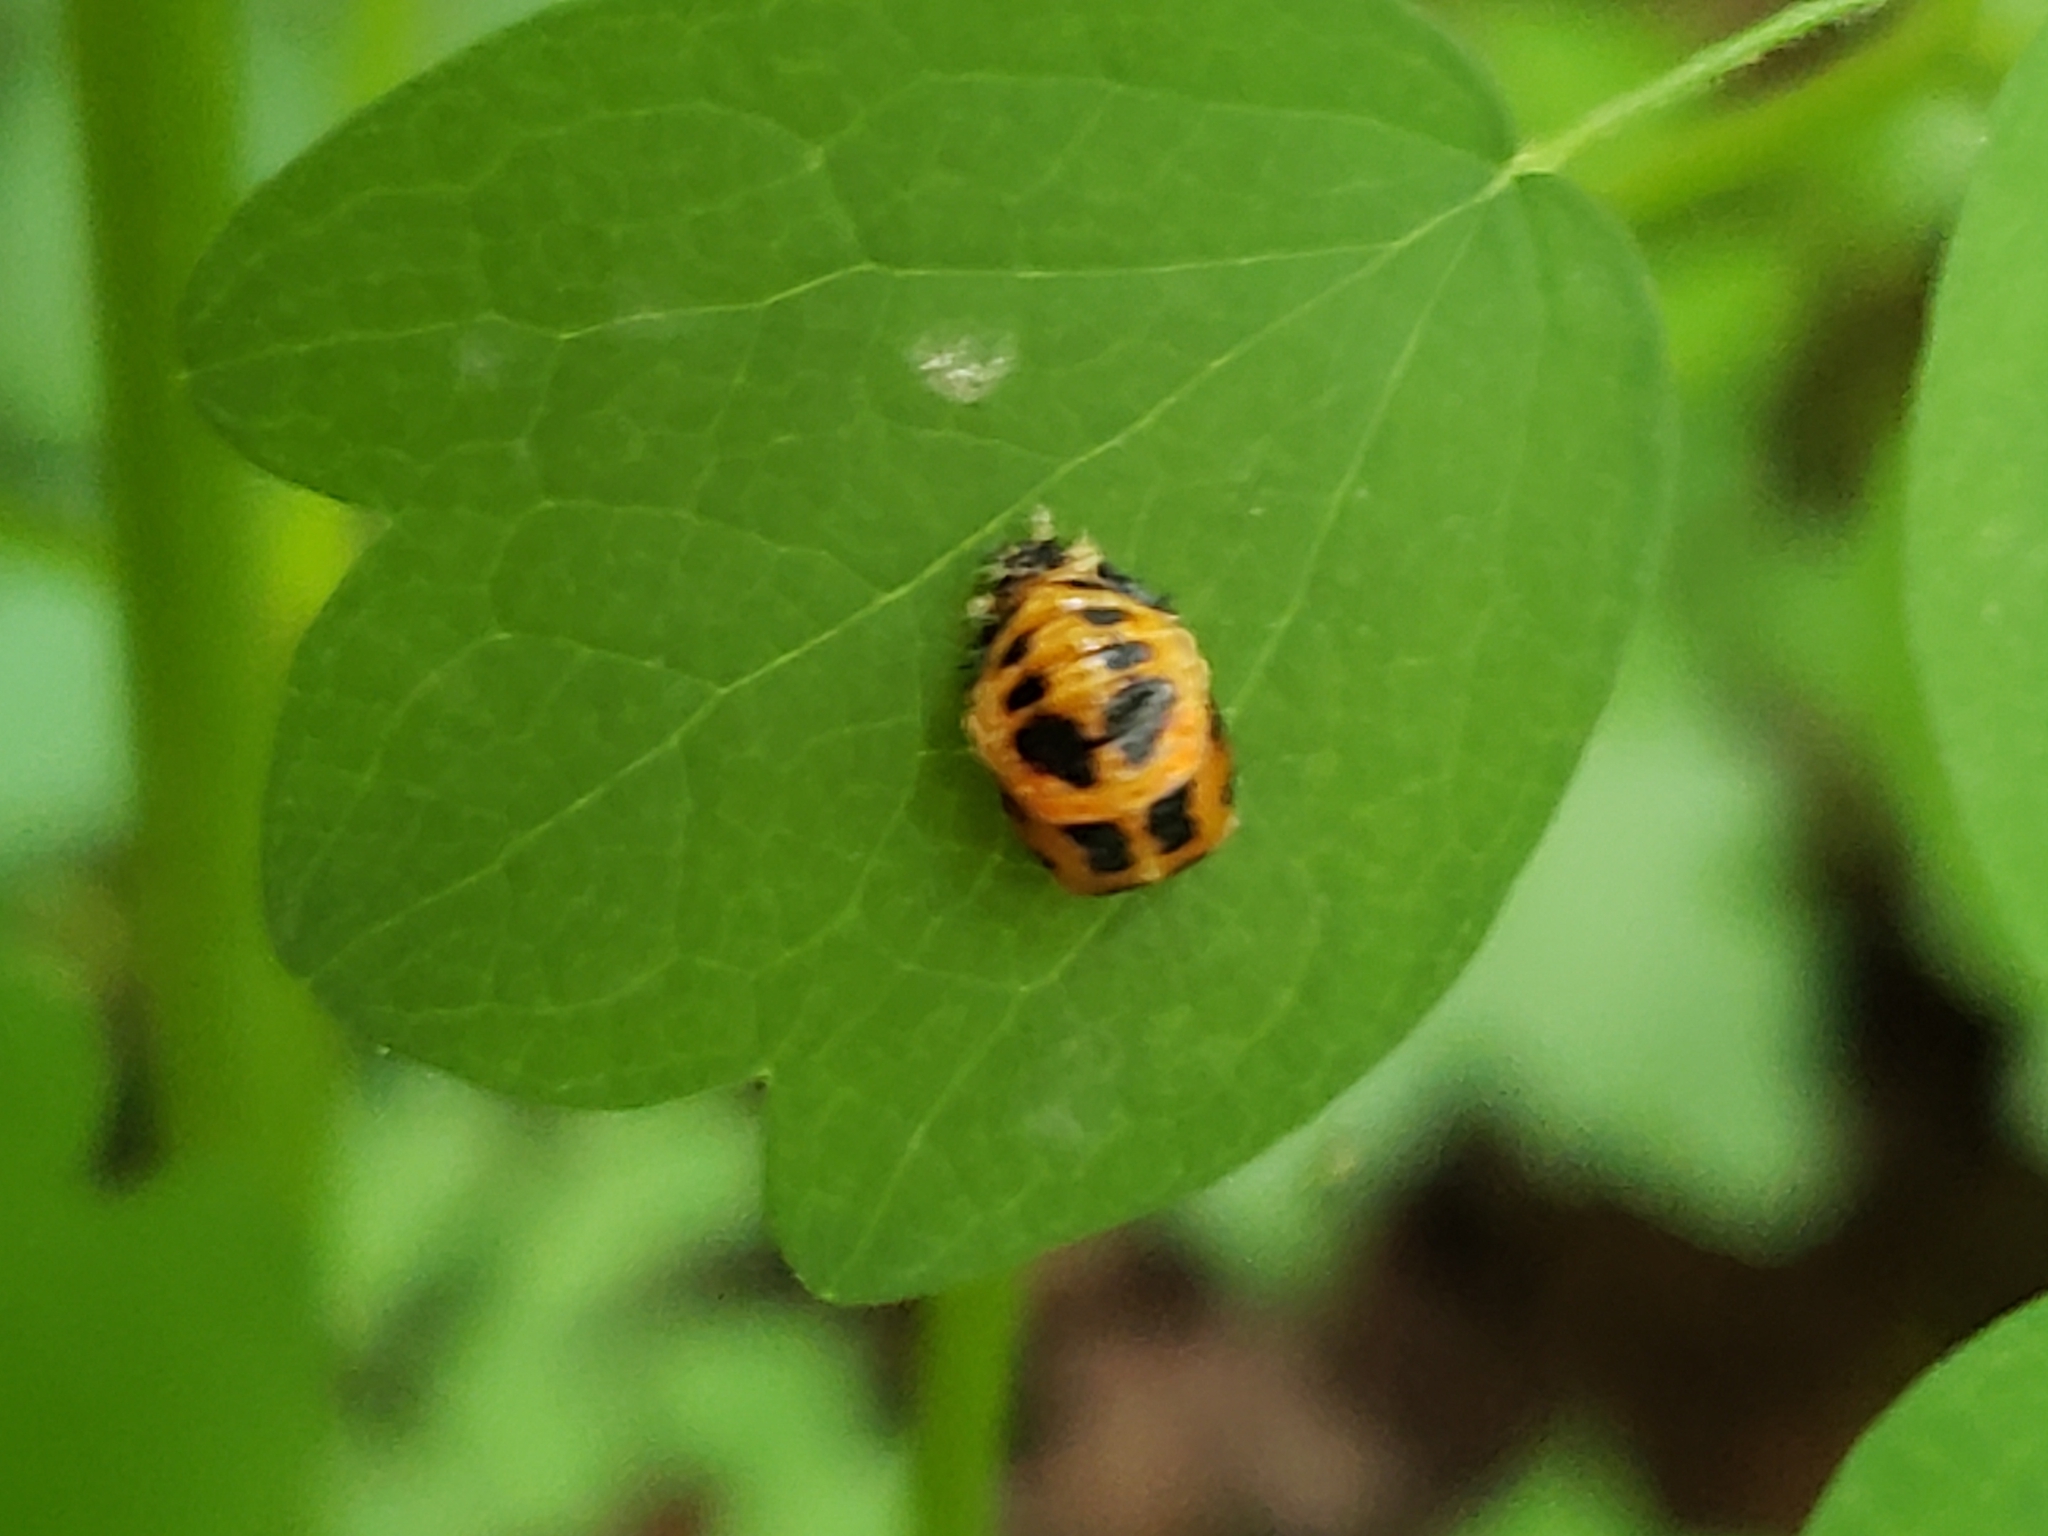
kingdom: Animalia
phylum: Arthropoda
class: Insecta
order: Coleoptera
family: Coccinellidae
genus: Harmonia
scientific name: Harmonia axyridis
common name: Harlequin ladybird
